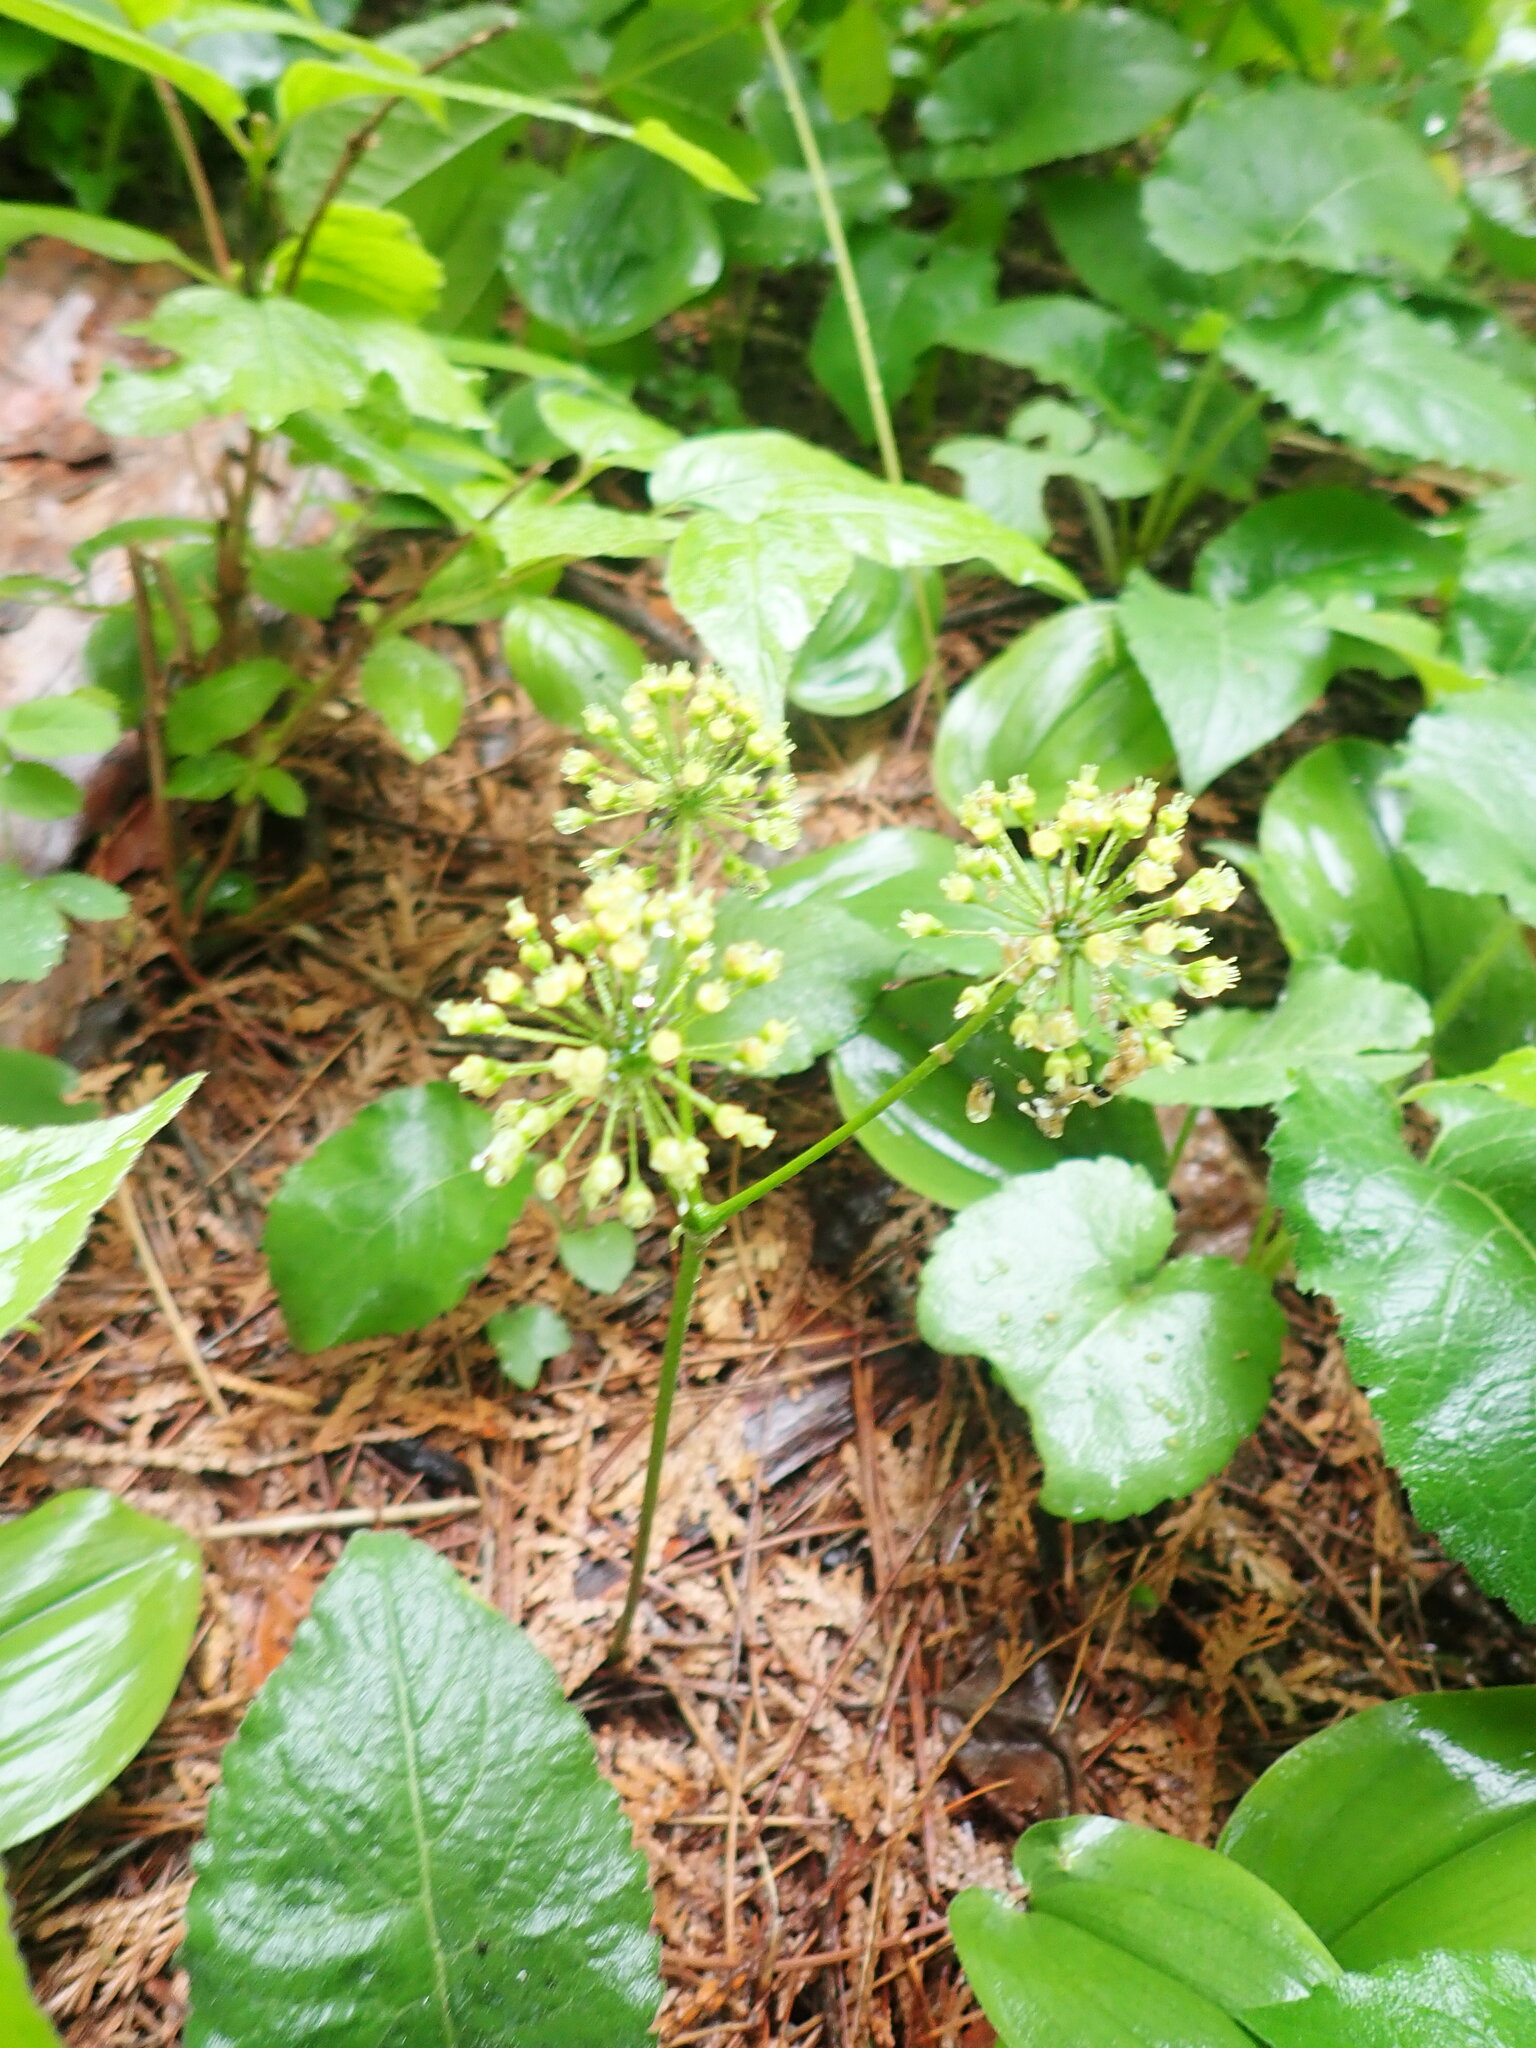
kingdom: Plantae
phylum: Tracheophyta
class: Magnoliopsida
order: Apiales
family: Araliaceae
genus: Aralia
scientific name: Aralia nudicaulis
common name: Wild sarsaparilla
